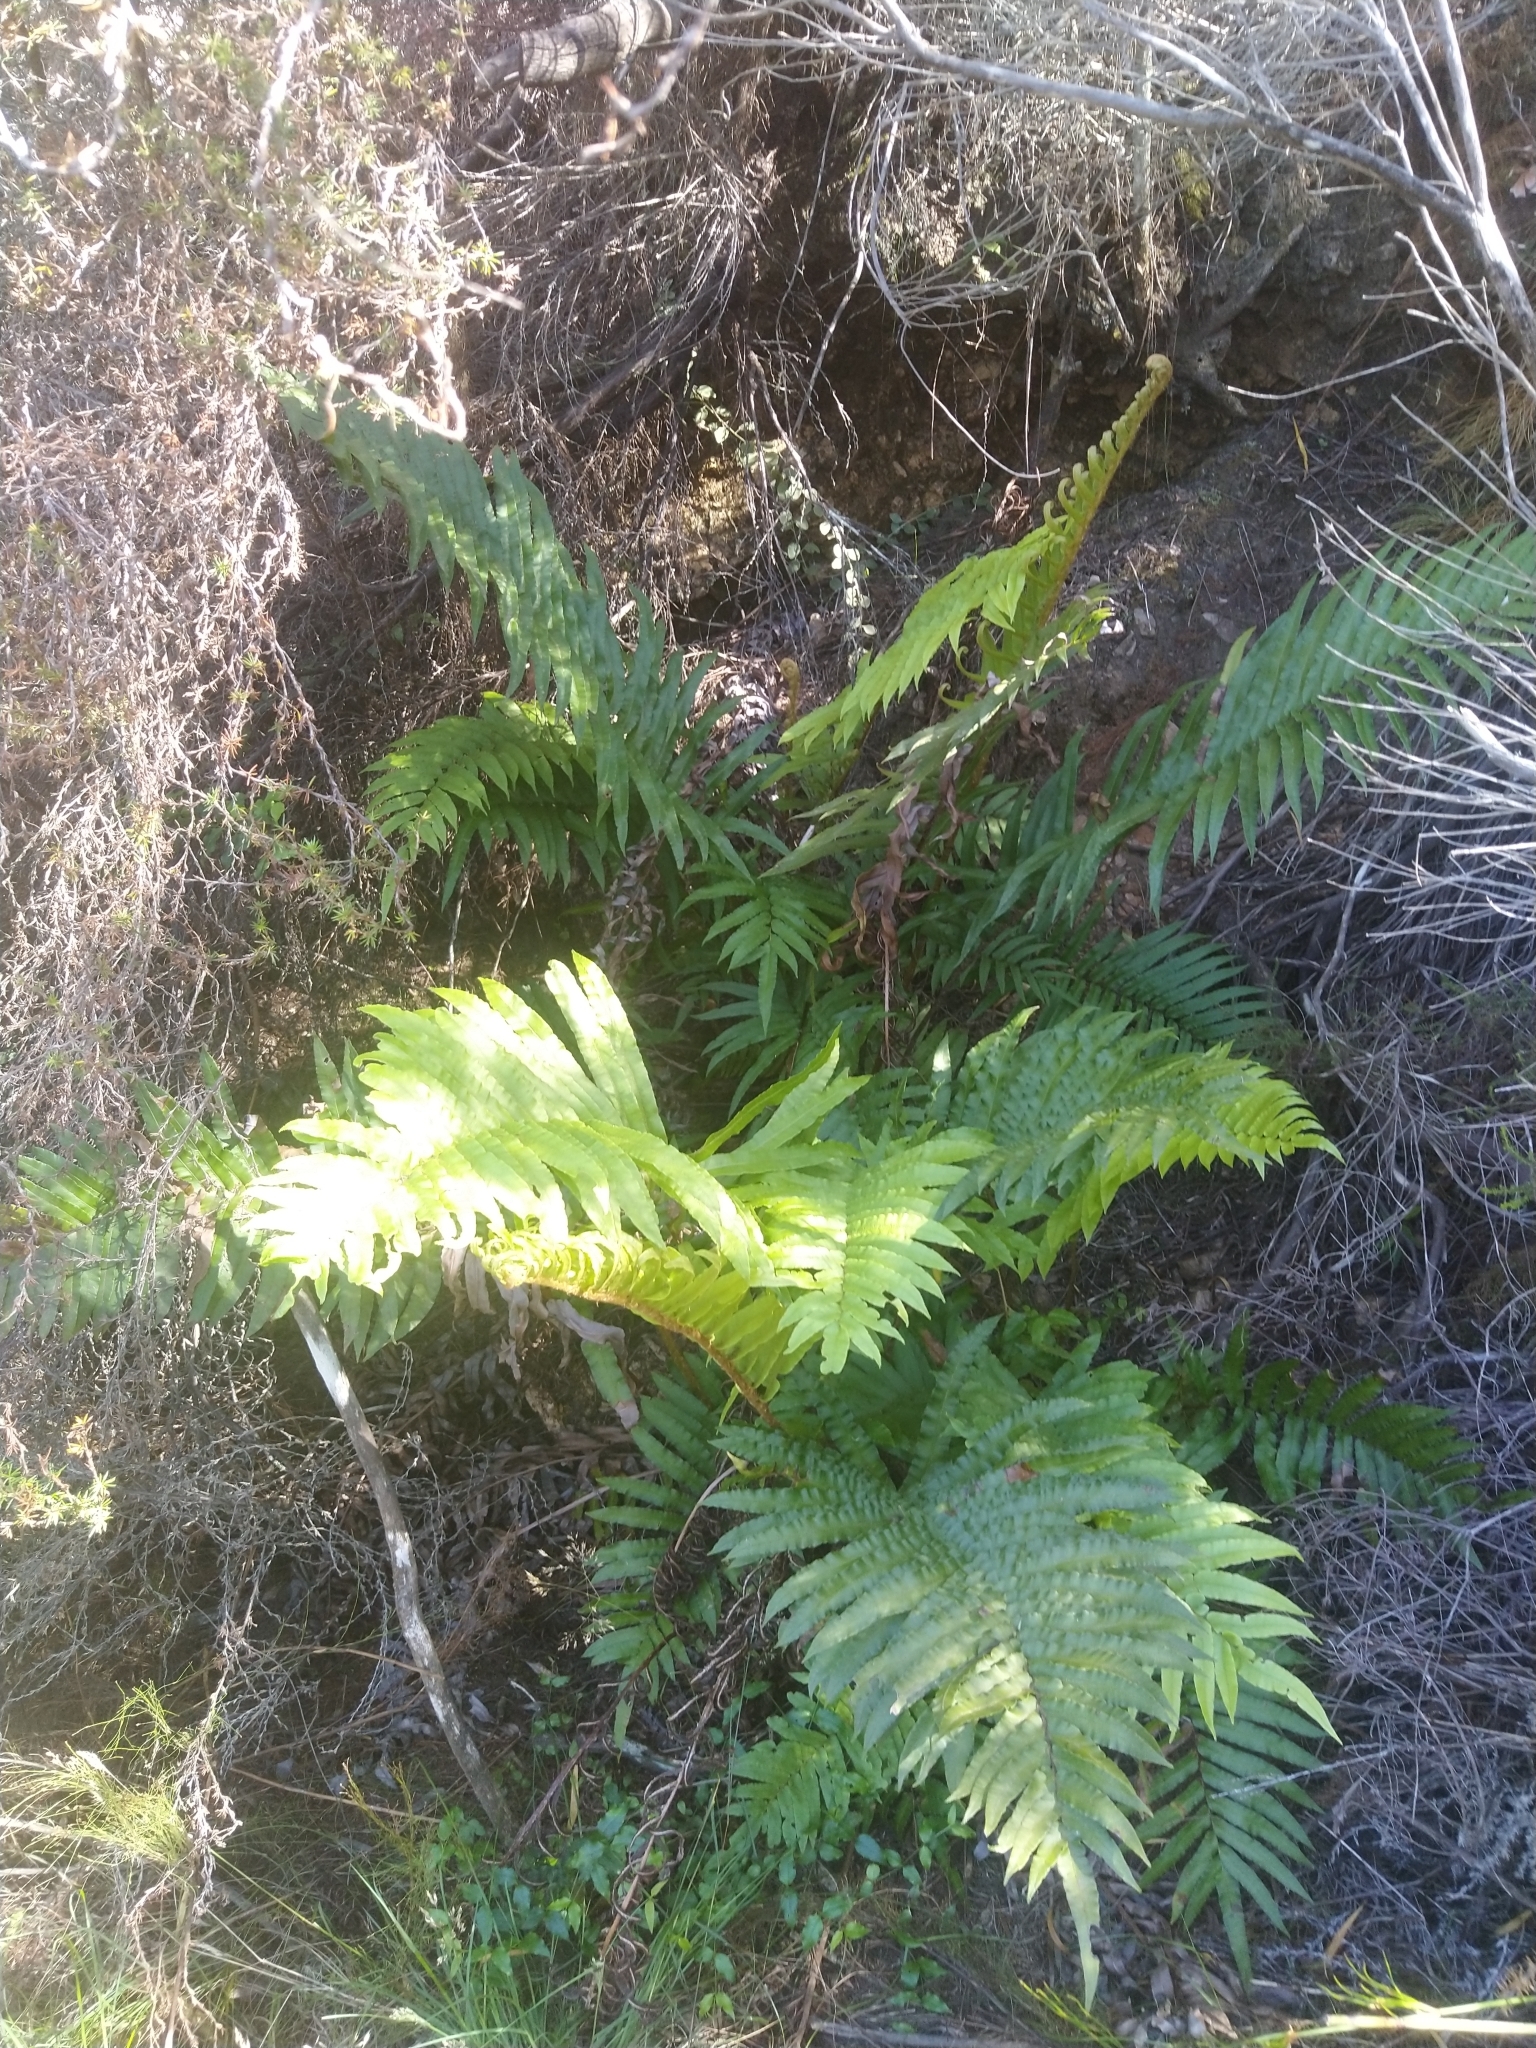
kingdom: Plantae
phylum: Tracheophyta
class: Polypodiopsida
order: Polypodiales
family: Blechnaceae
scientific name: Blechnaceae
